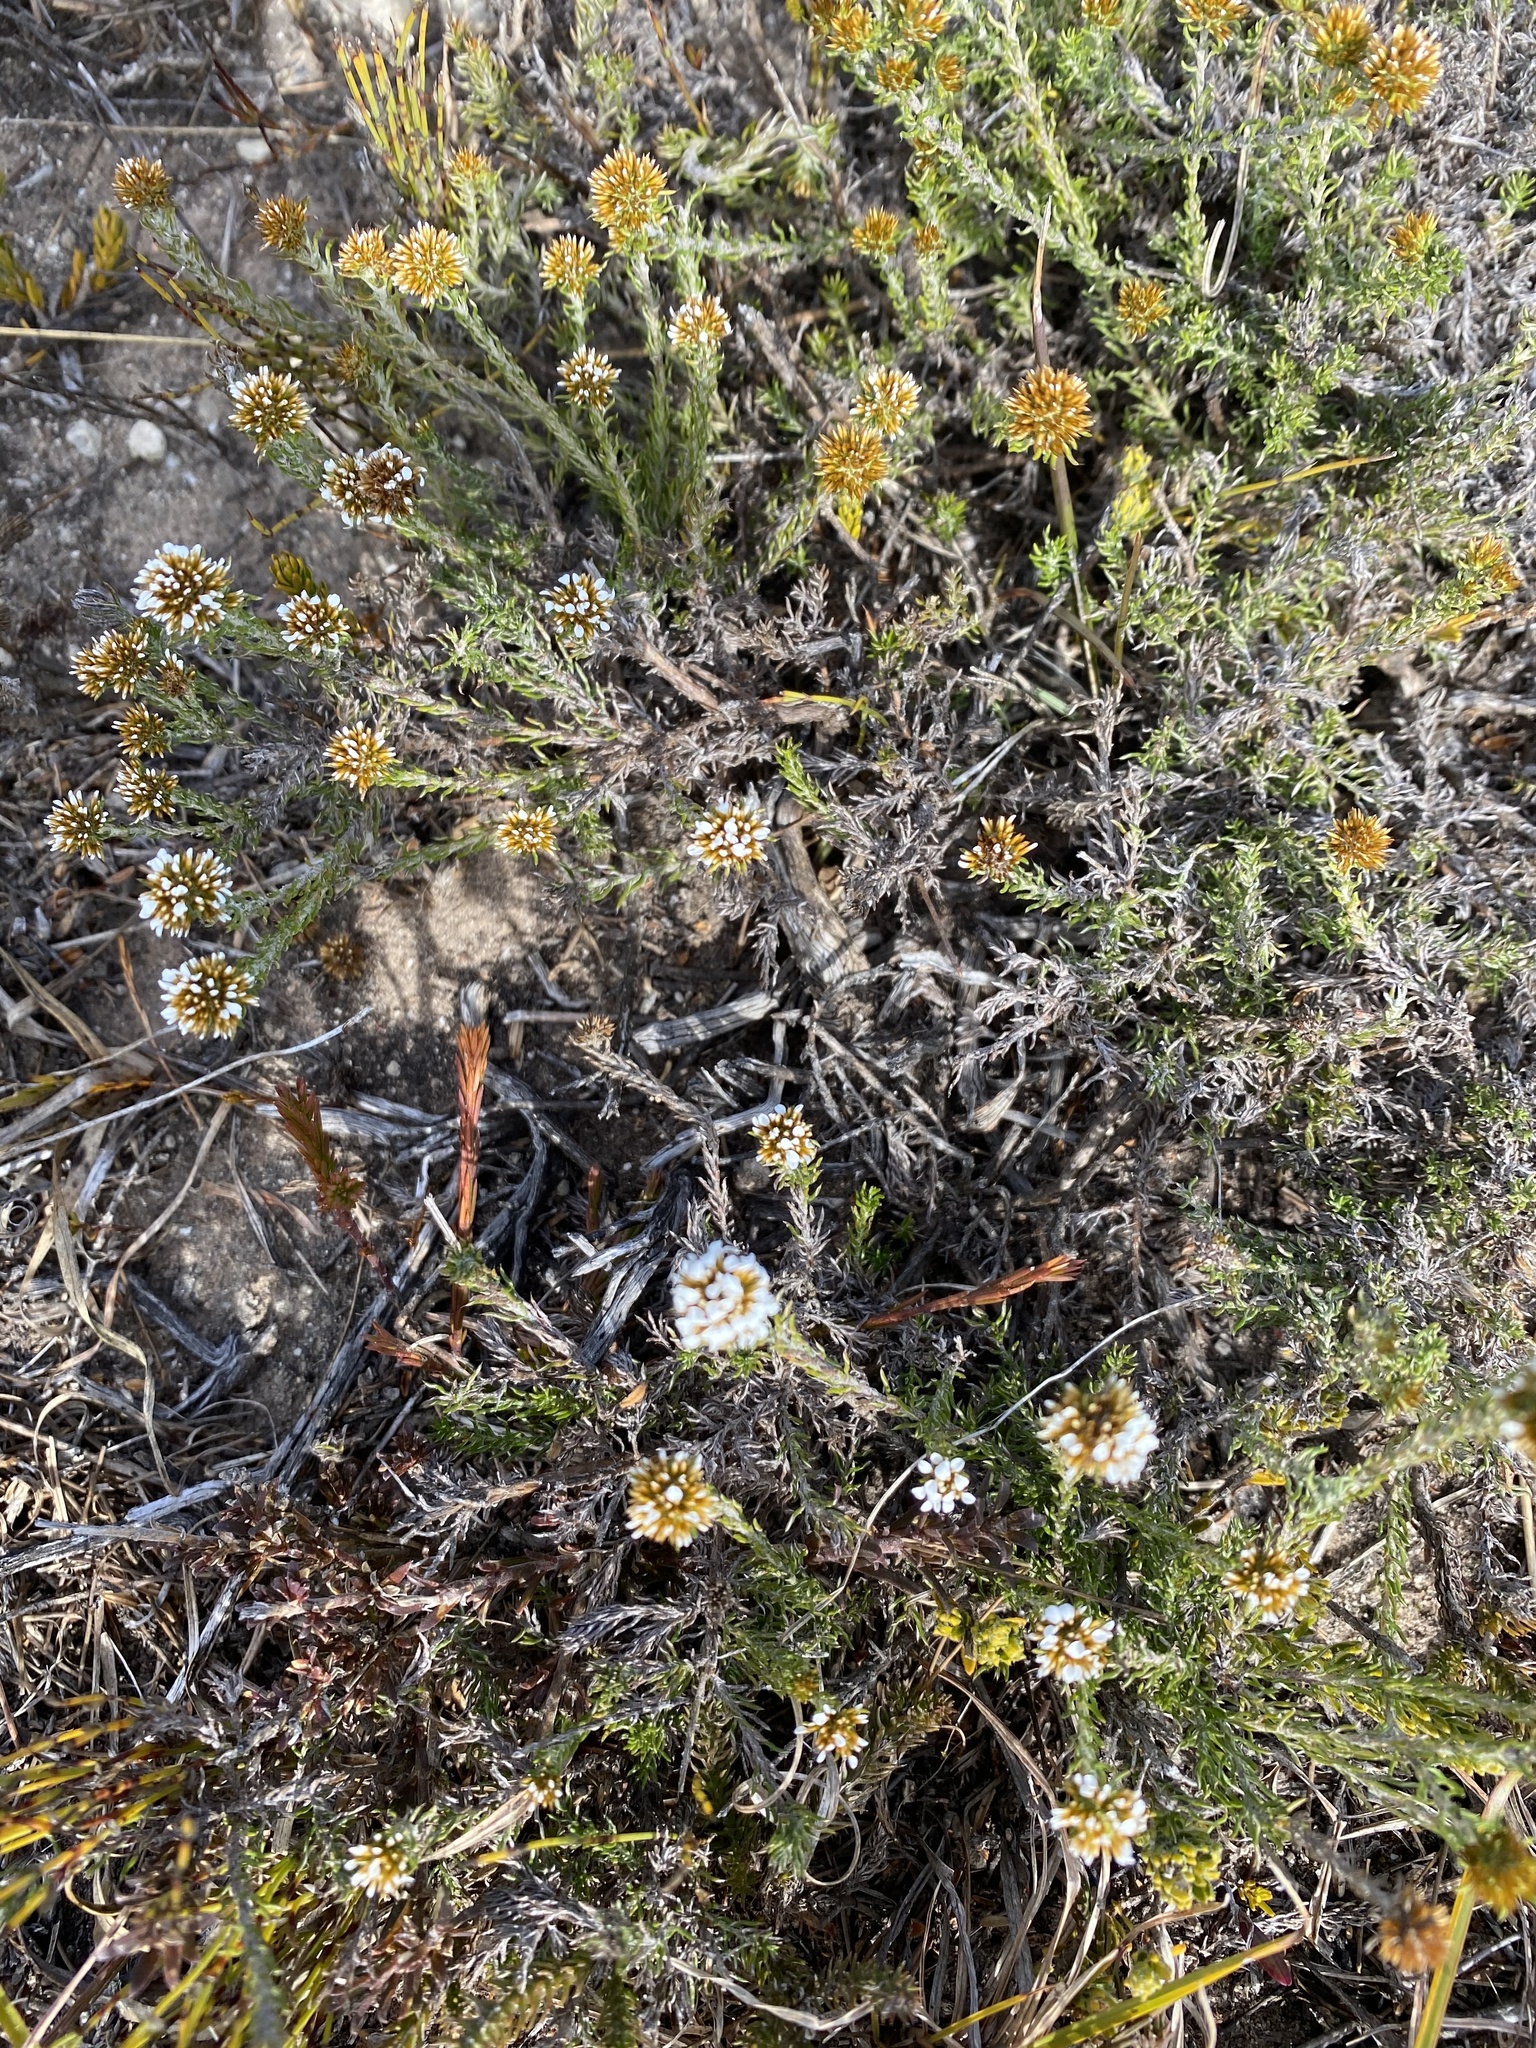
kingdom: Plantae
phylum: Tracheophyta
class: Magnoliopsida
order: Asterales
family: Asteraceae
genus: Disparago
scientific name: Disparago anomala
